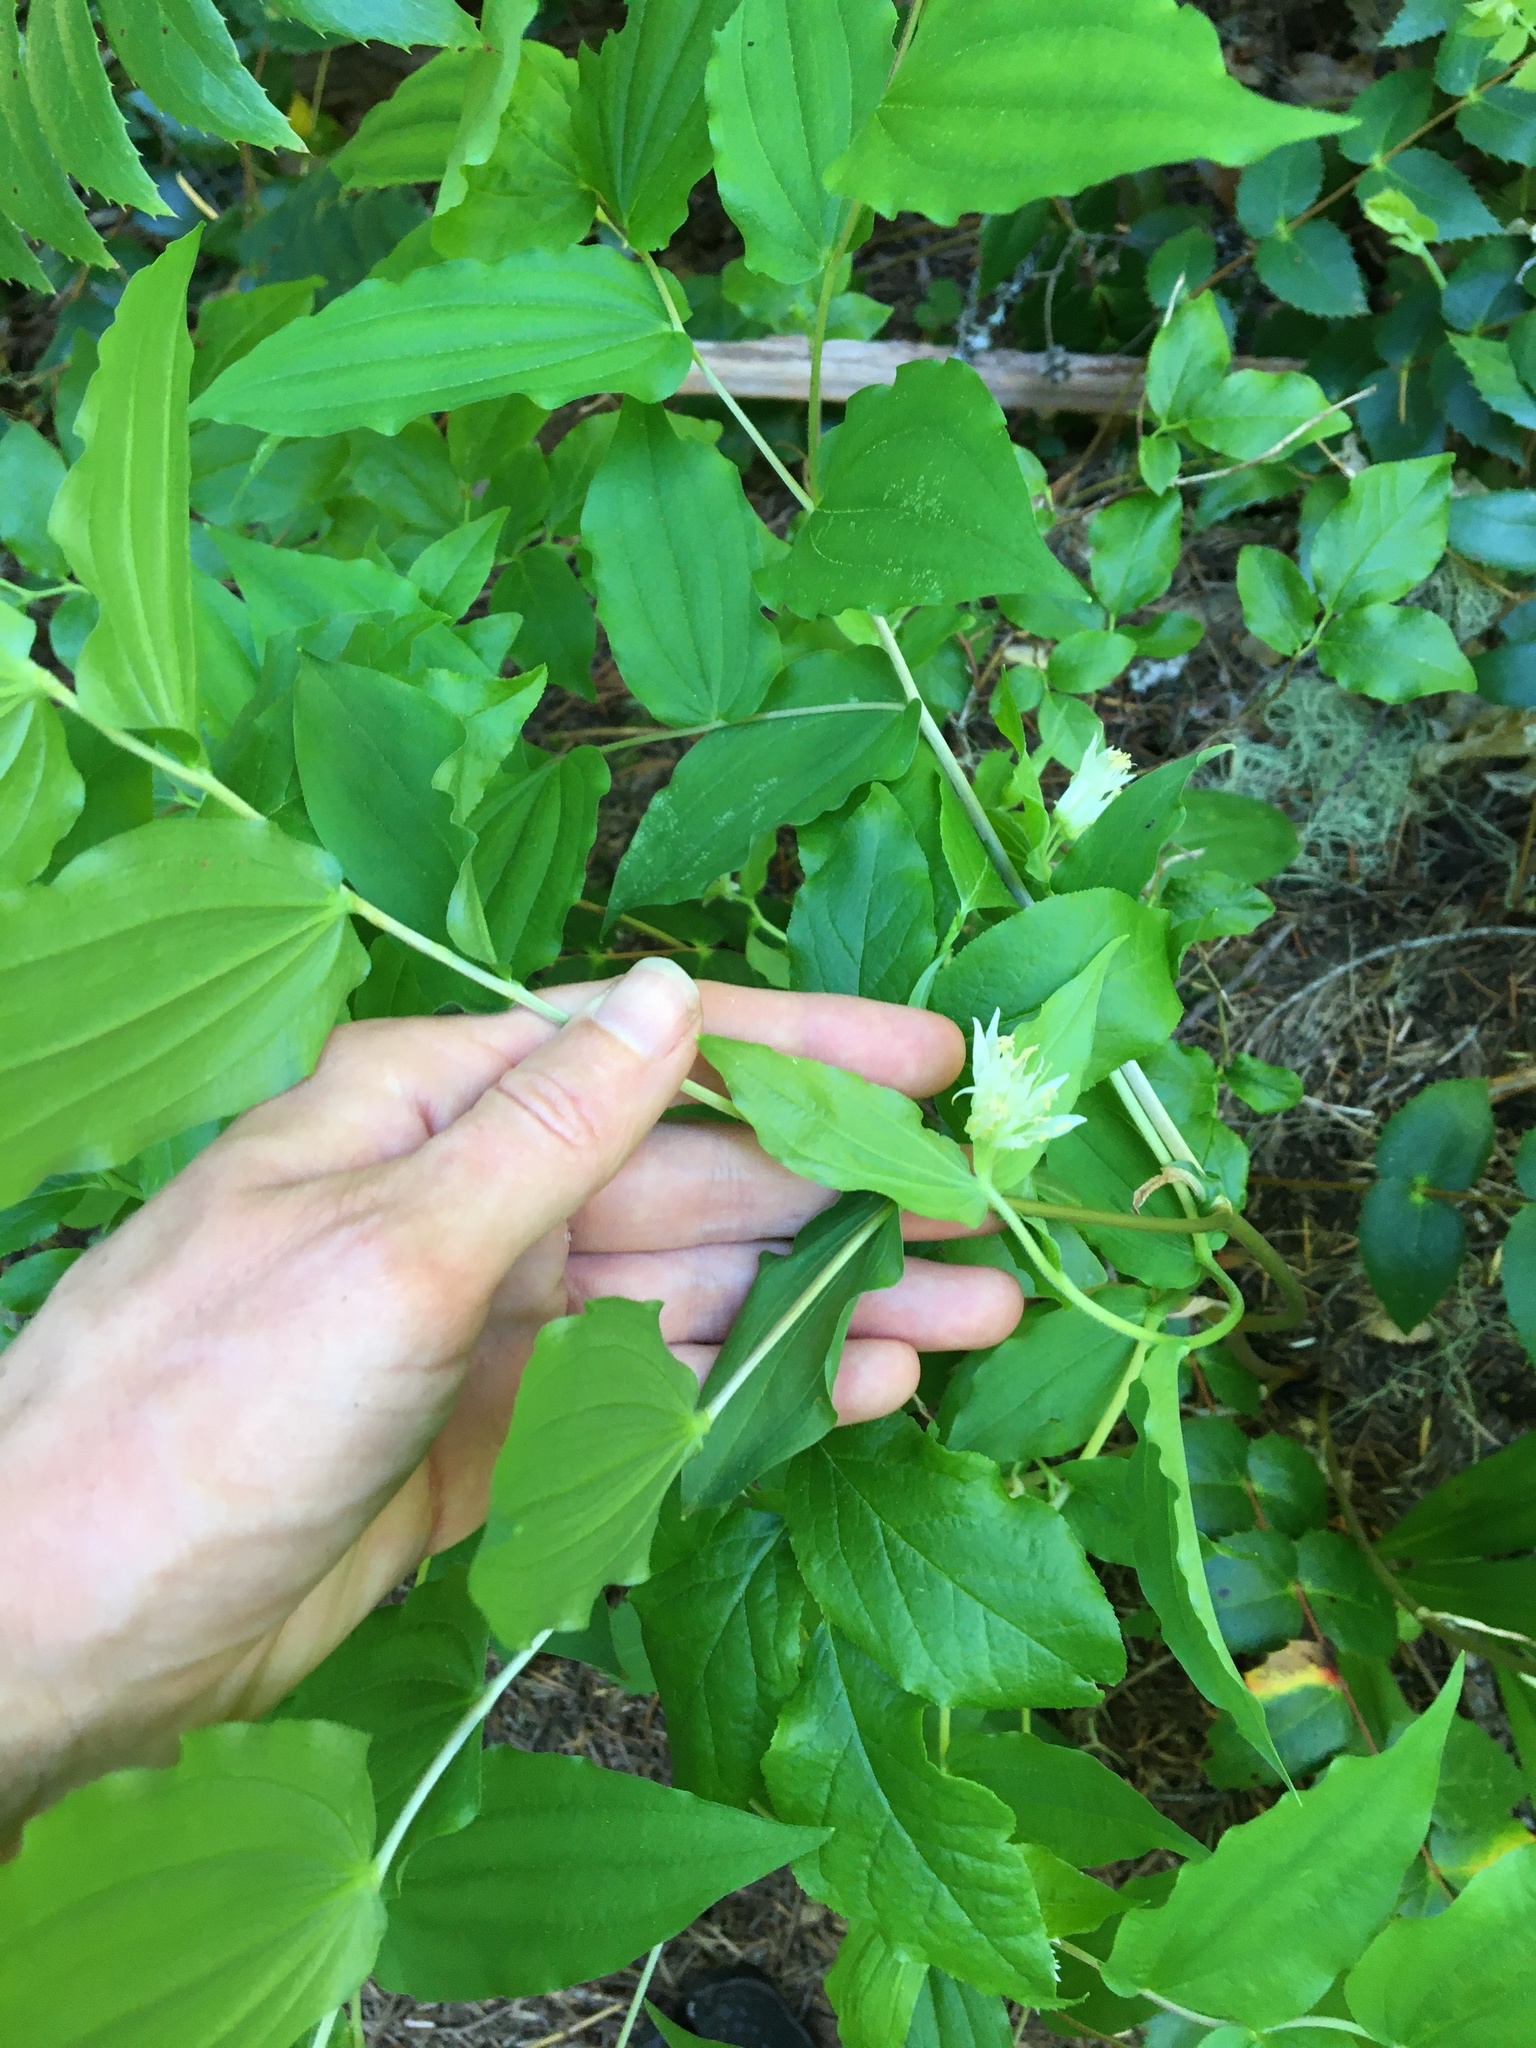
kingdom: Plantae
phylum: Tracheophyta
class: Liliopsida
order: Liliales
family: Liliaceae
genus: Prosartes
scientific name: Prosartes hookeri
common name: Fairy-bells
